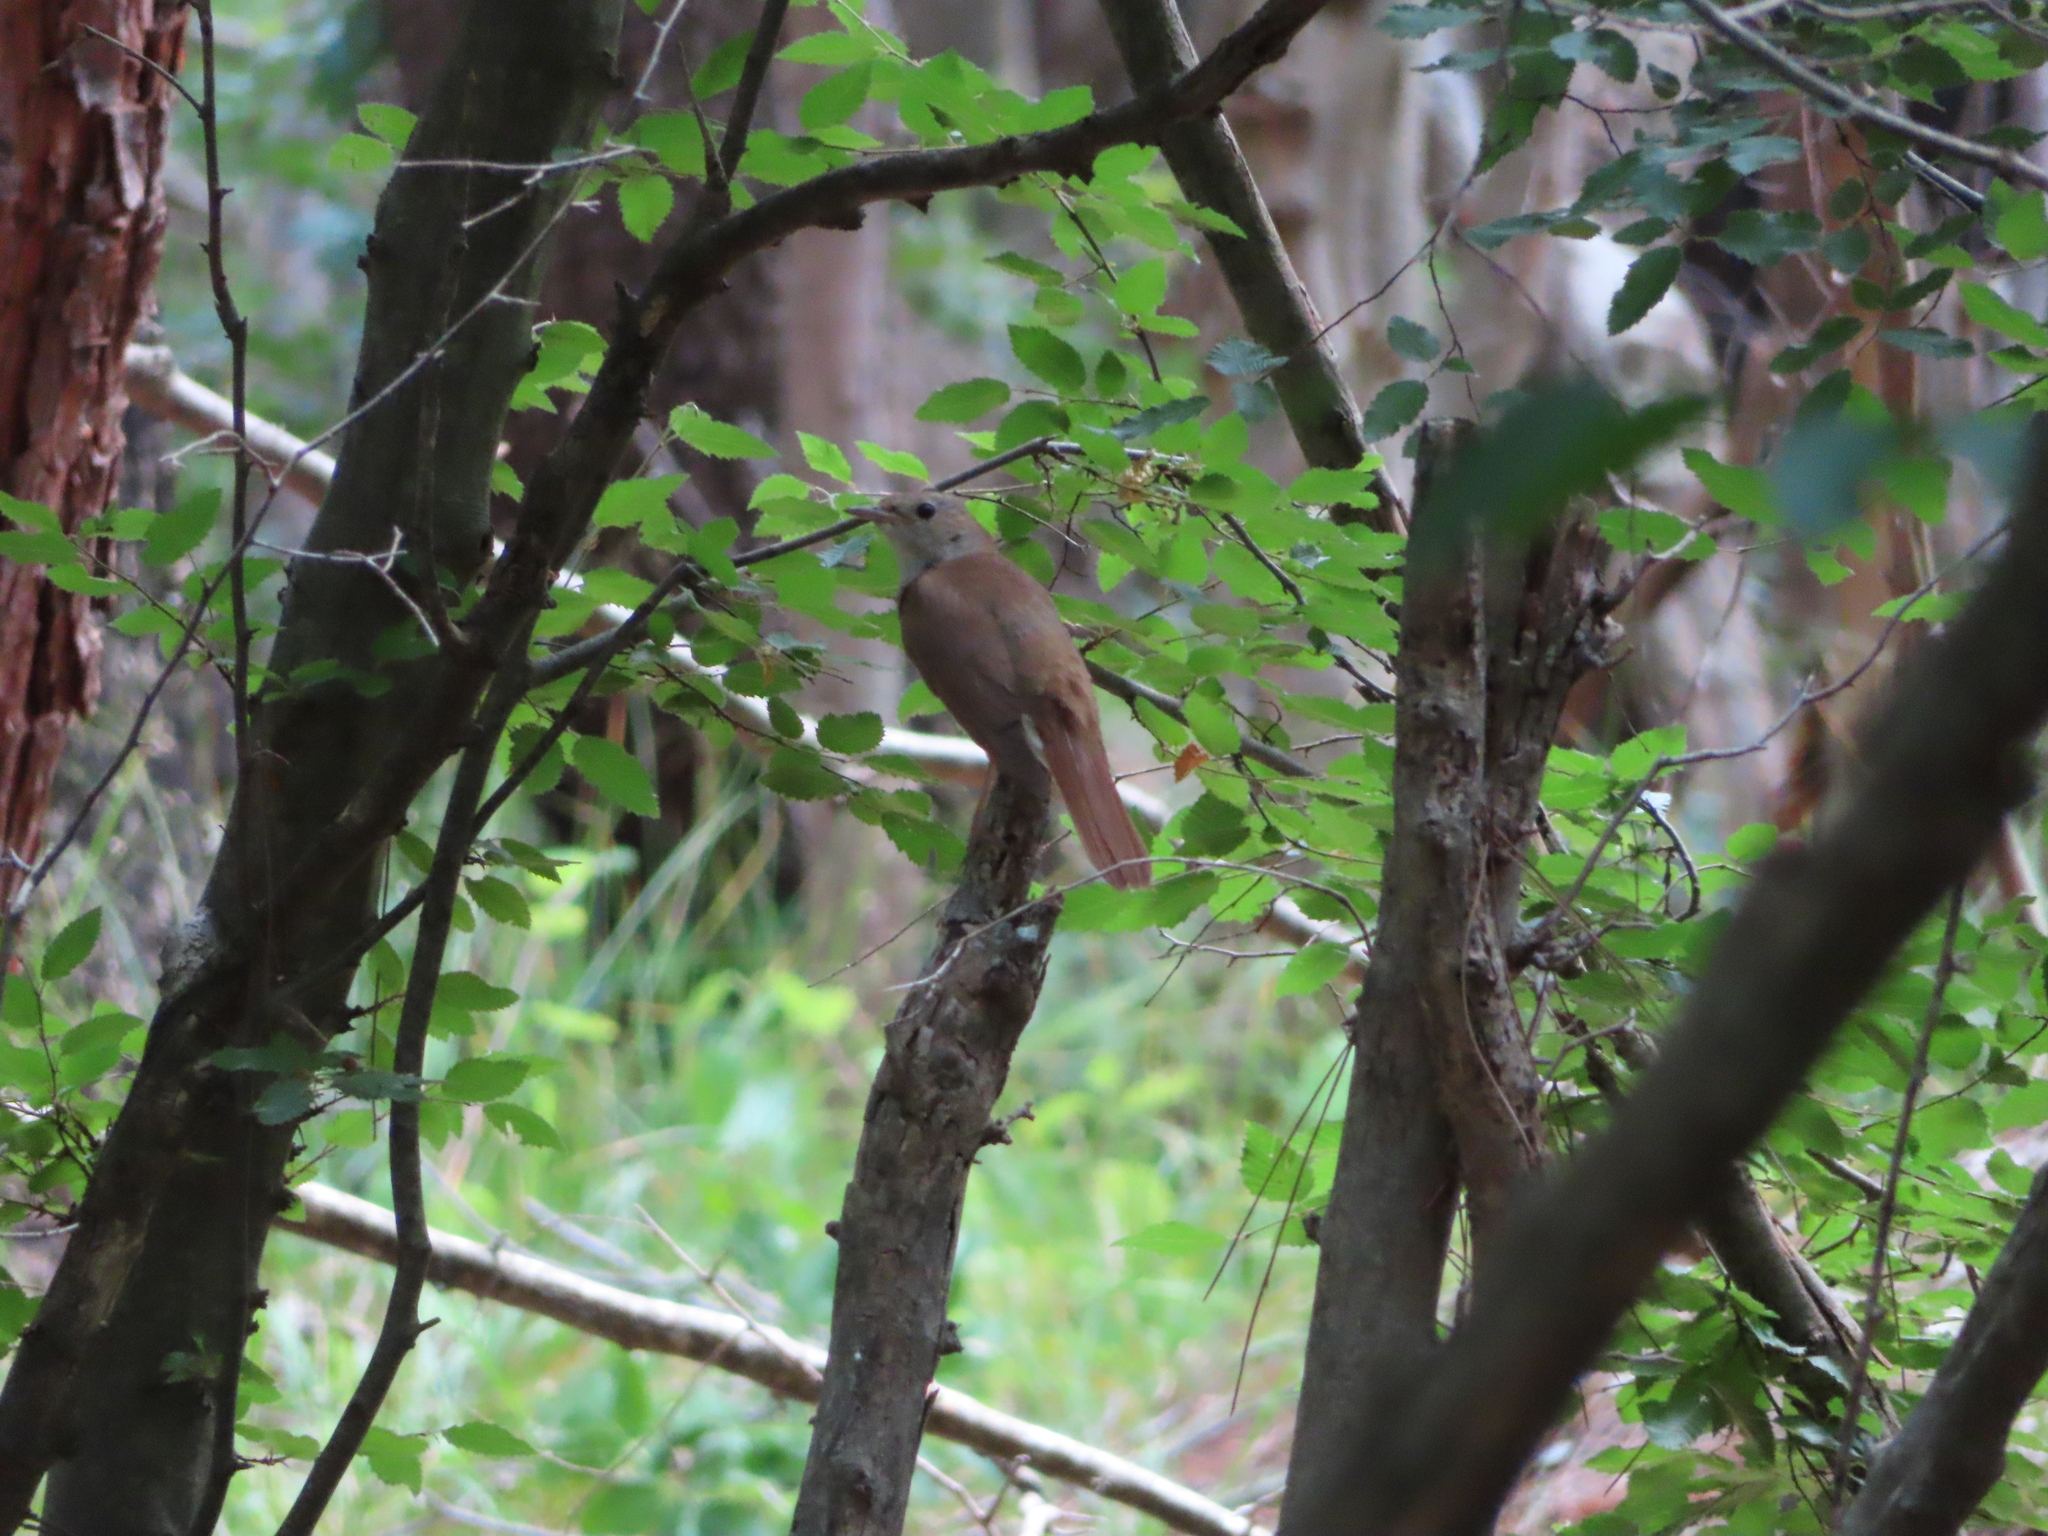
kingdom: Animalia
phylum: Chordata
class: Aves
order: Passeriformes
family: Muscicapidae
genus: Luscinia
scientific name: Luscinia megarhynchos
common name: Common nightingale
